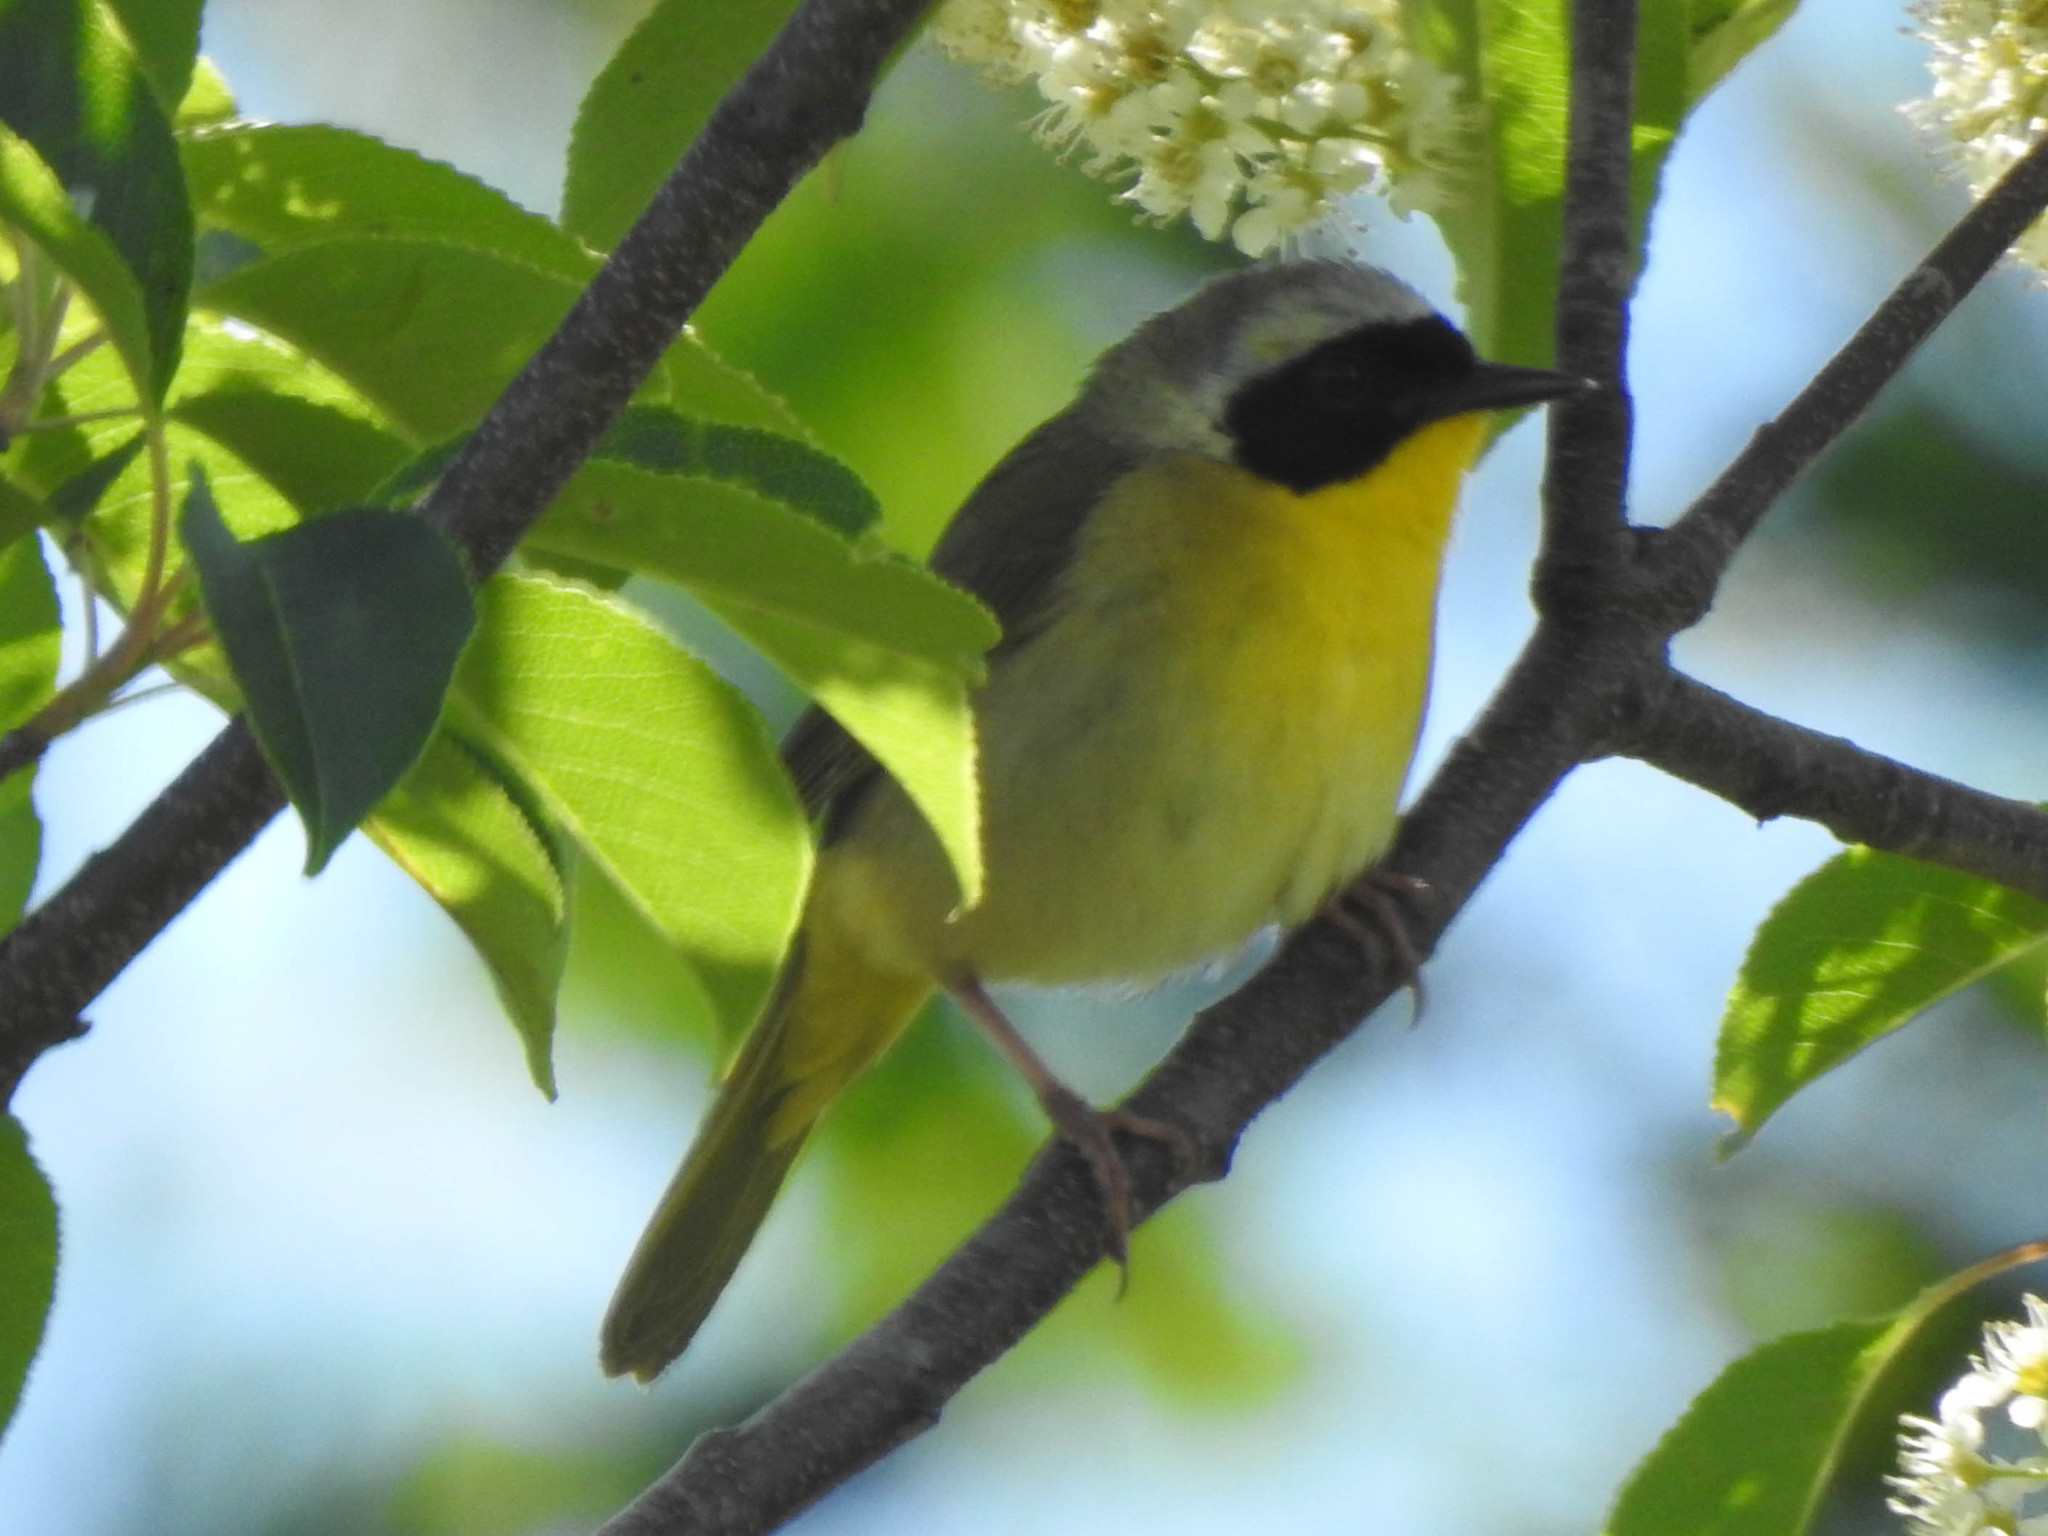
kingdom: Animalia
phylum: Chordata
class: Aves
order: Passeriformes
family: Parulidae
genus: Geothlypis
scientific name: Geothlypis trichas
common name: Common yellowthroat
